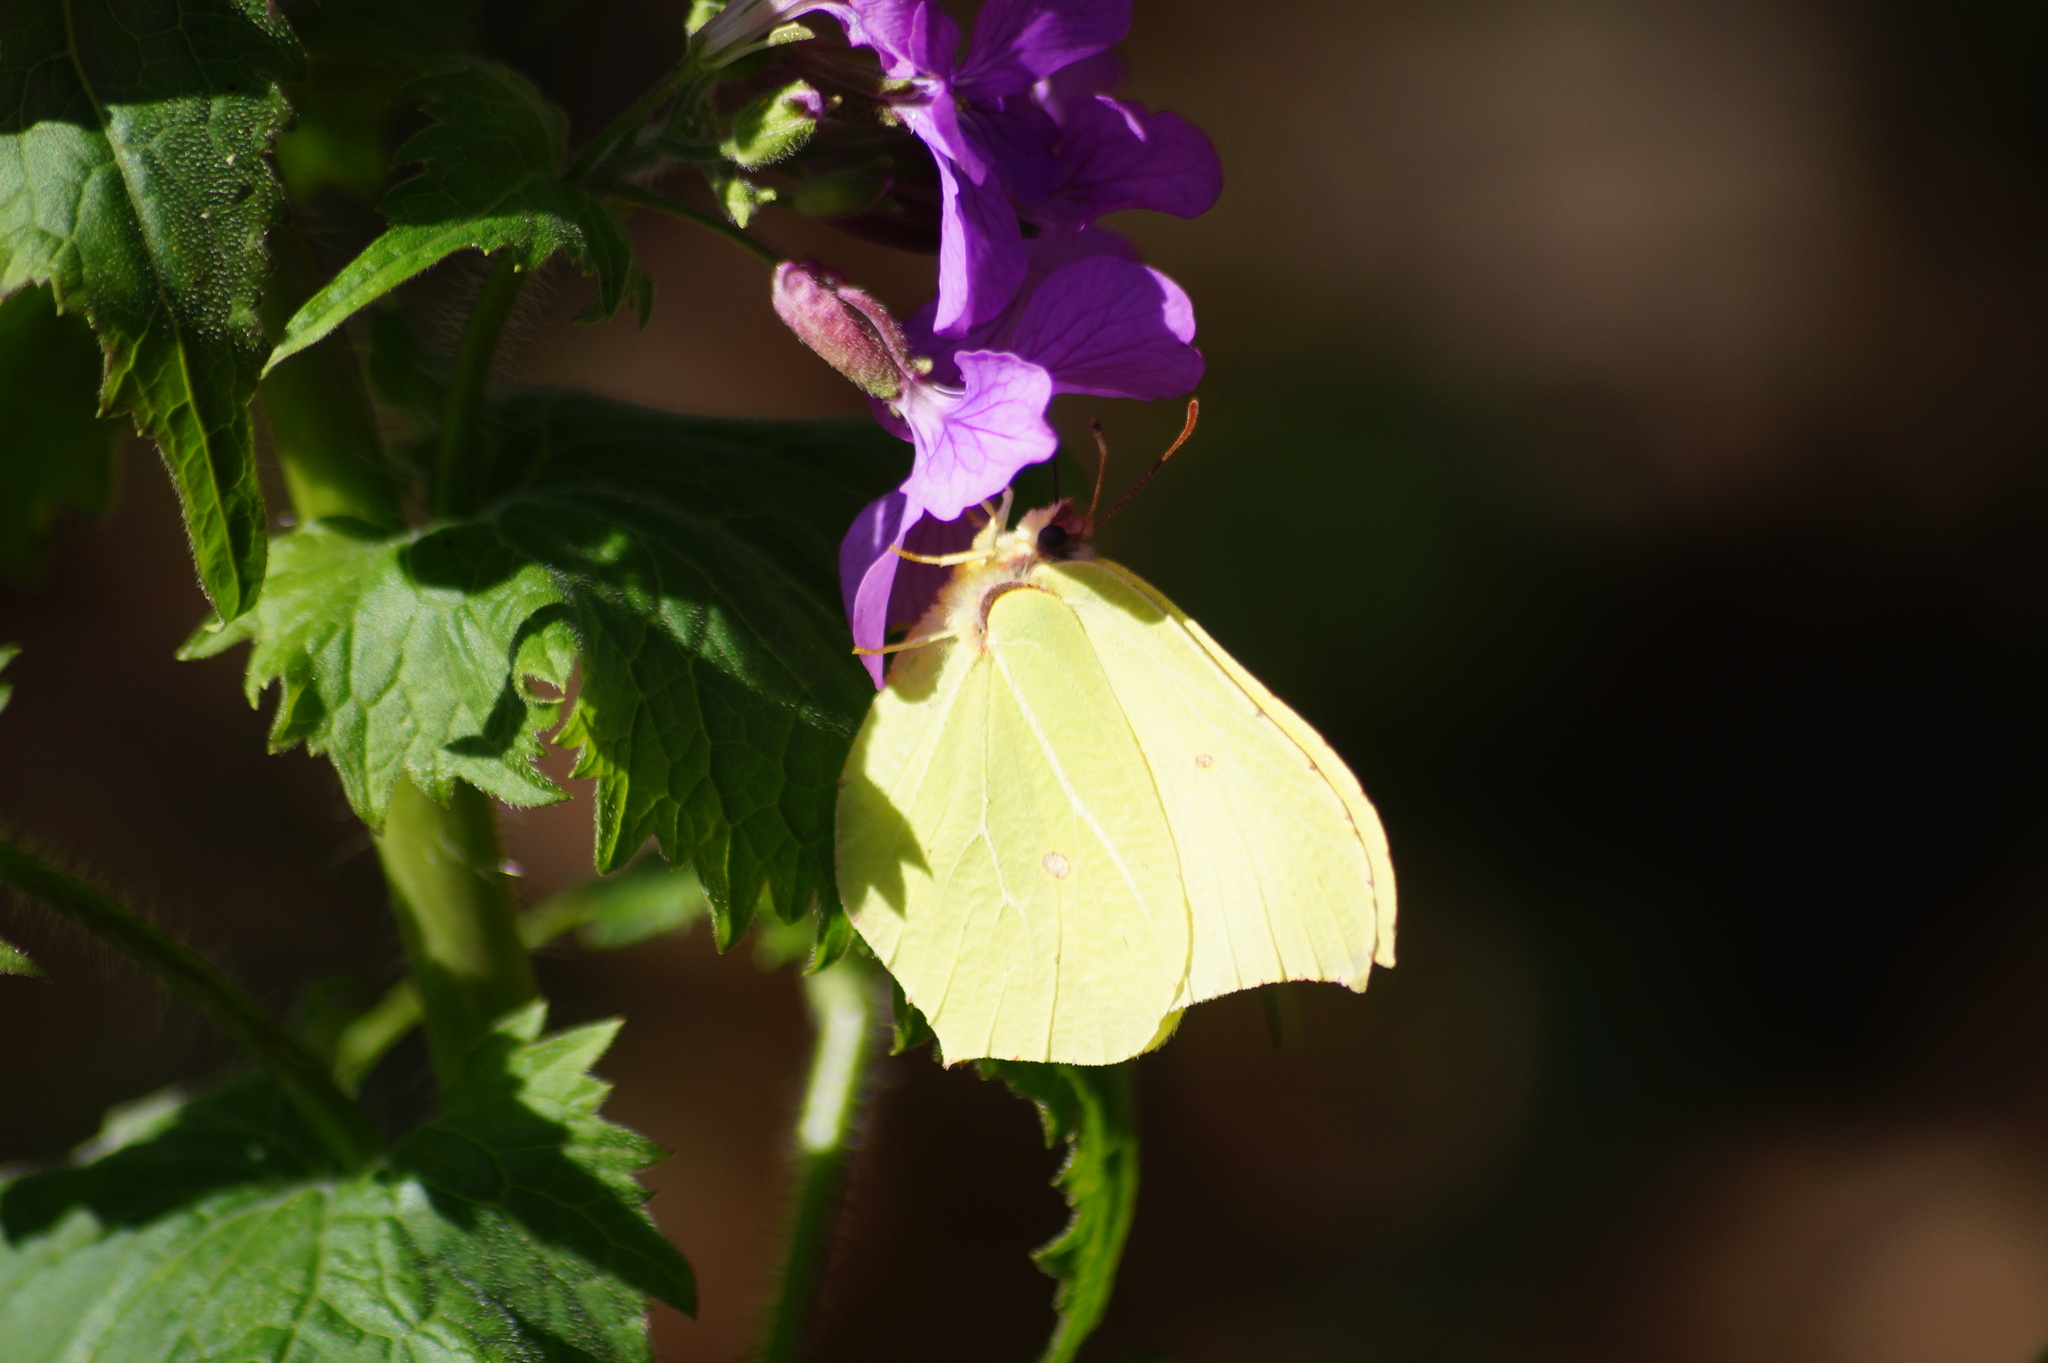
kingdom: Animalia
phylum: Arthropoda
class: Insecta
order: Lepidoptera
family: Pieridae
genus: Gonepteryx
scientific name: Gonepteryx rhamni
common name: Brimstone
